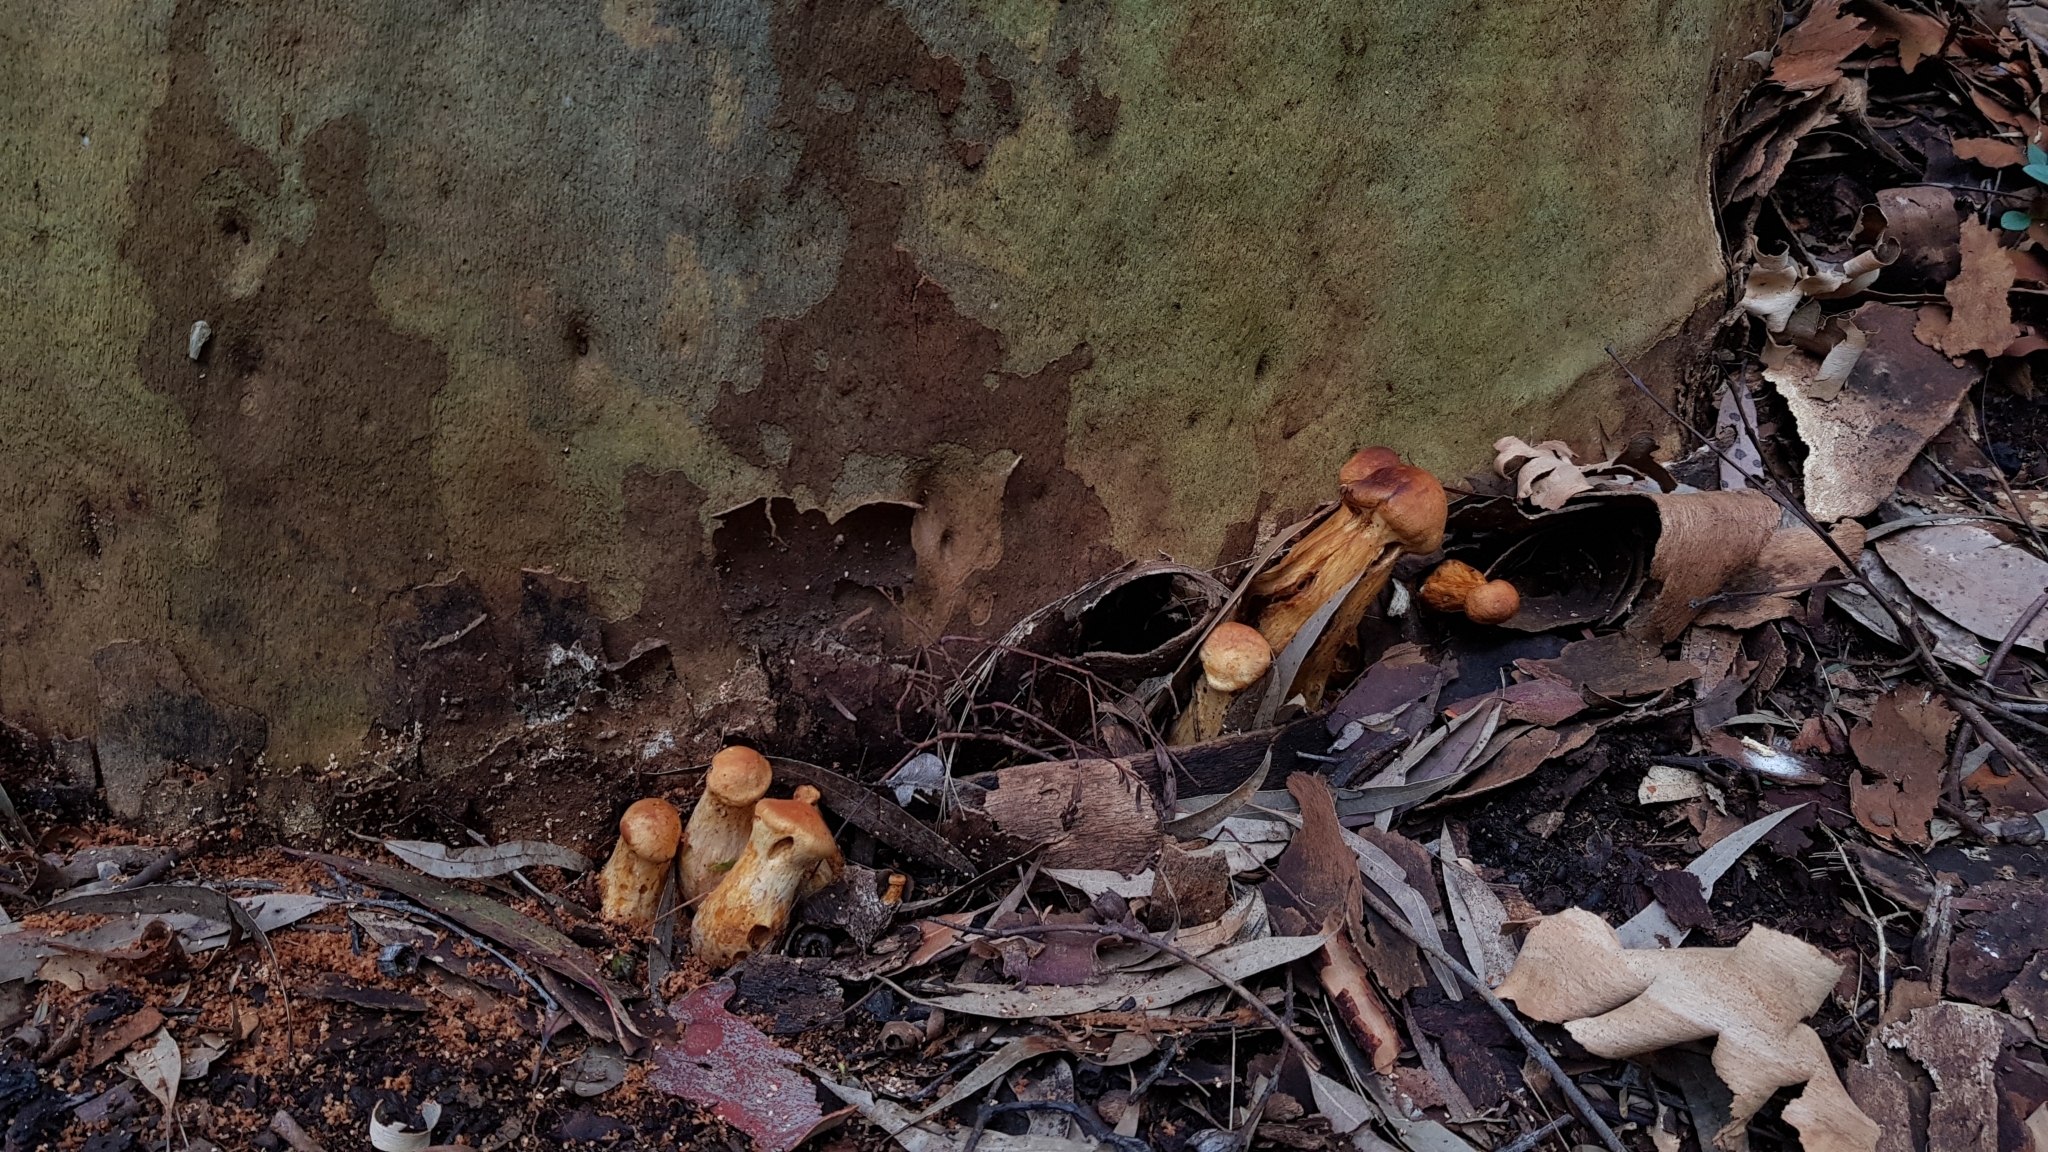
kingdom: Fungi
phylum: Basidiomycota
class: Agaricomycetes
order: Agaricales
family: Hymenogastraceae
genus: Gymnopilus
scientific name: Gymnopilus junonius
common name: Spectacular rustgill
